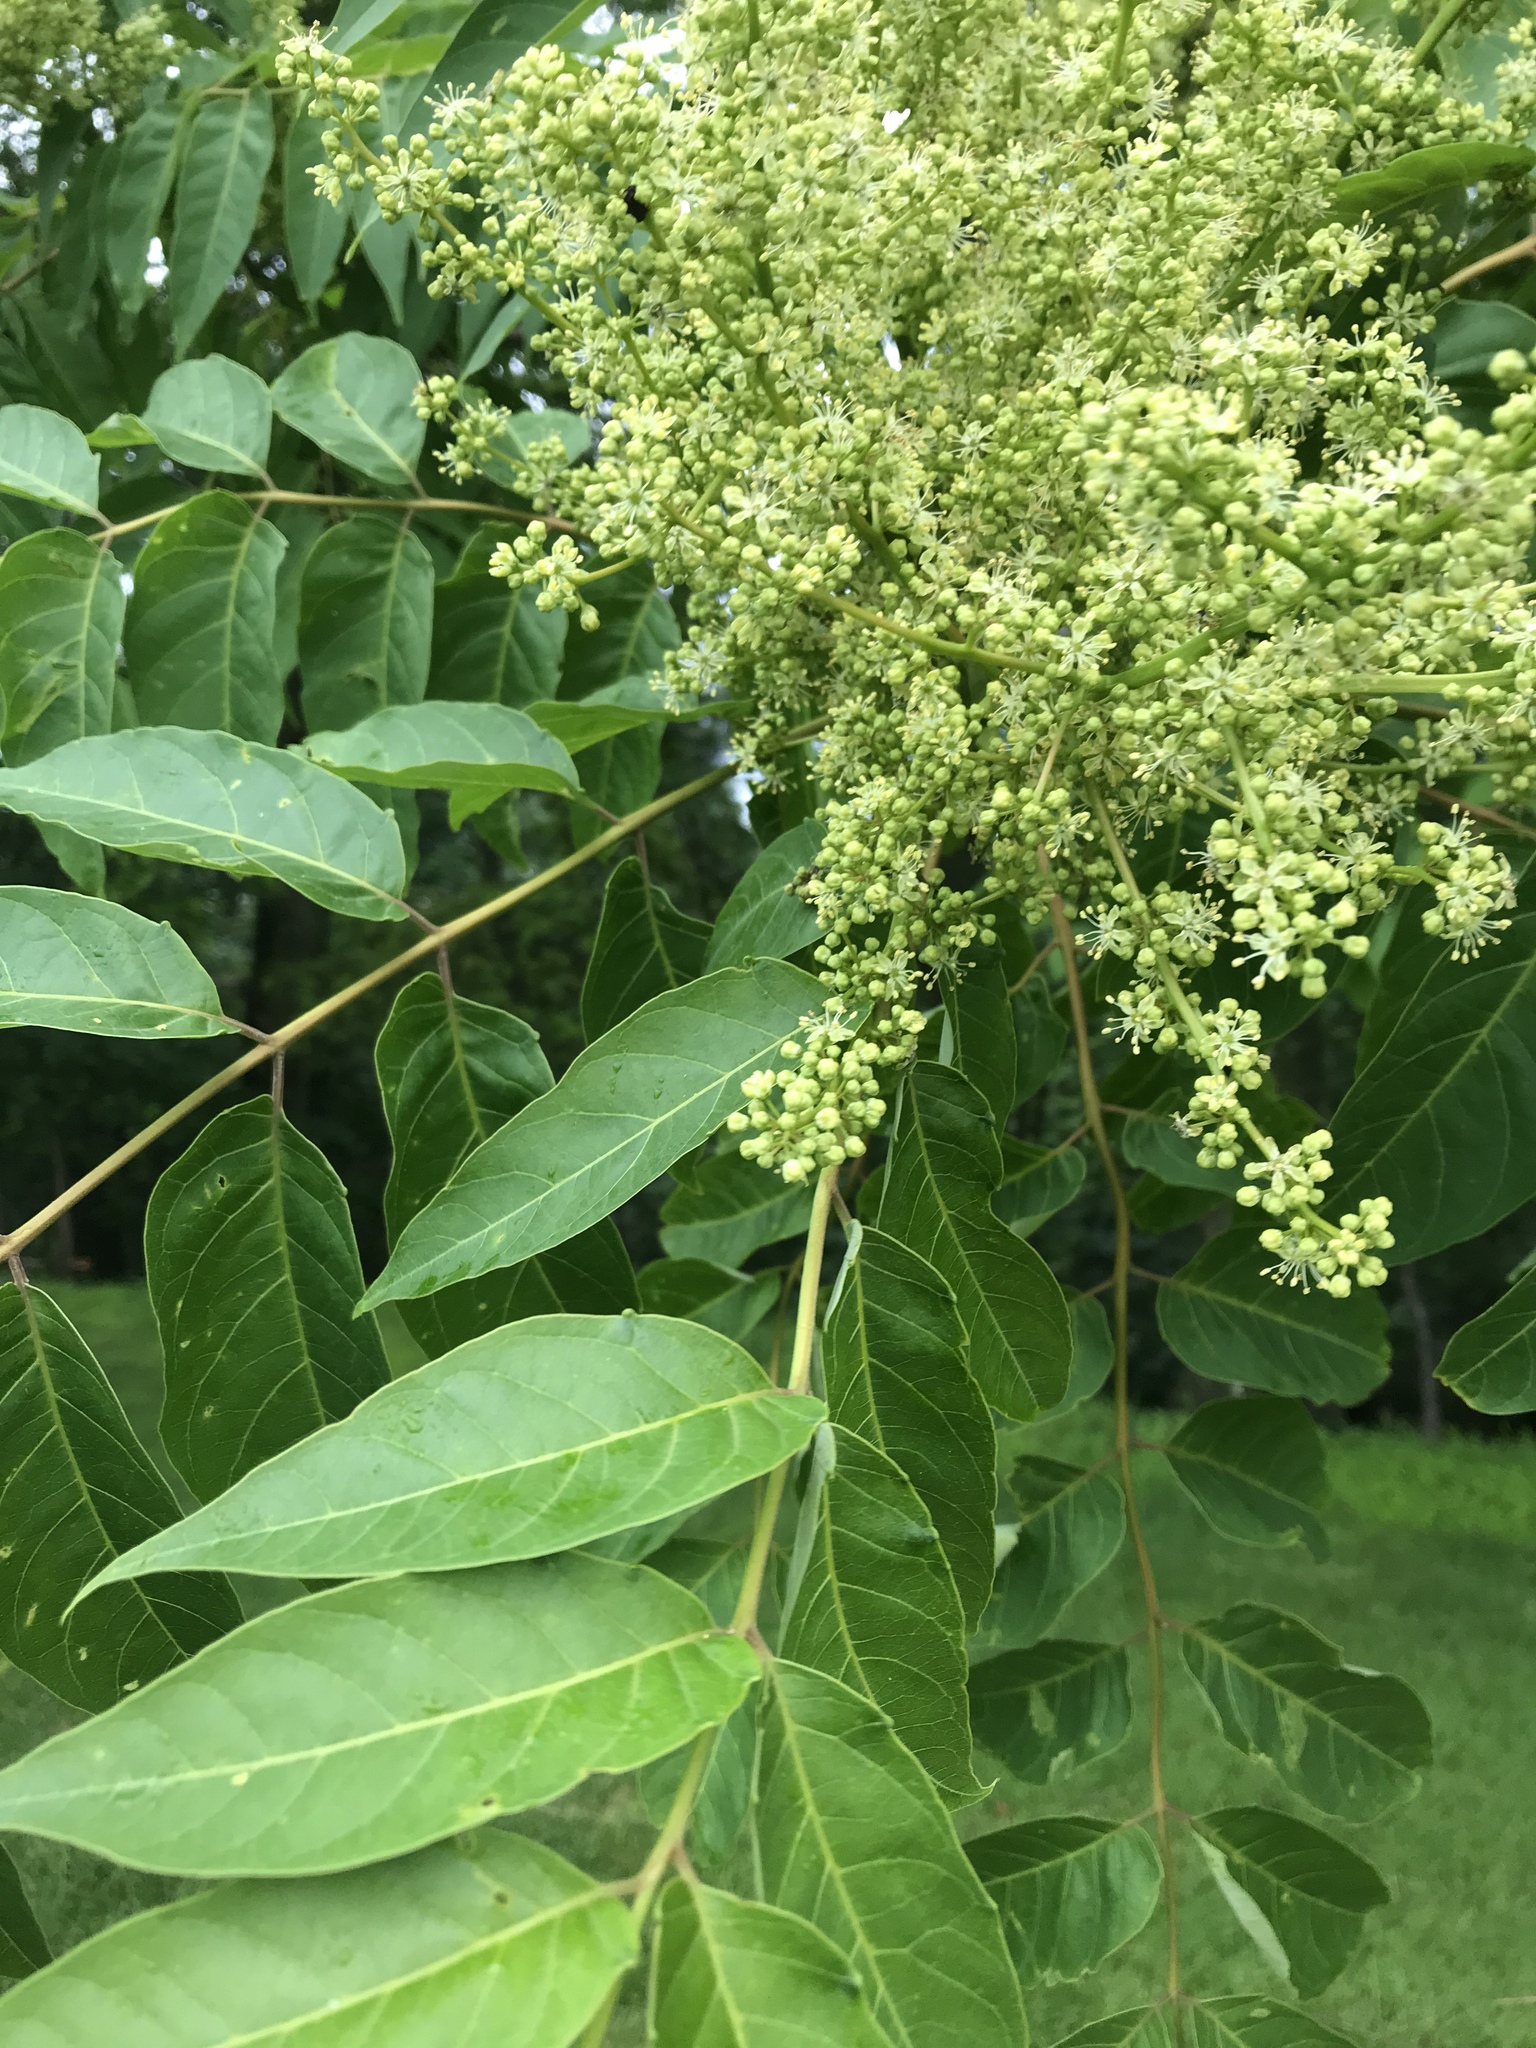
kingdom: Plantae
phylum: Tracheophyta
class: Magnoliopsida
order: Sapindales
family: Simaroubaceae
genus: Ailanthus
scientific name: Ailanthus altissima
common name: Tree-of-heaven
